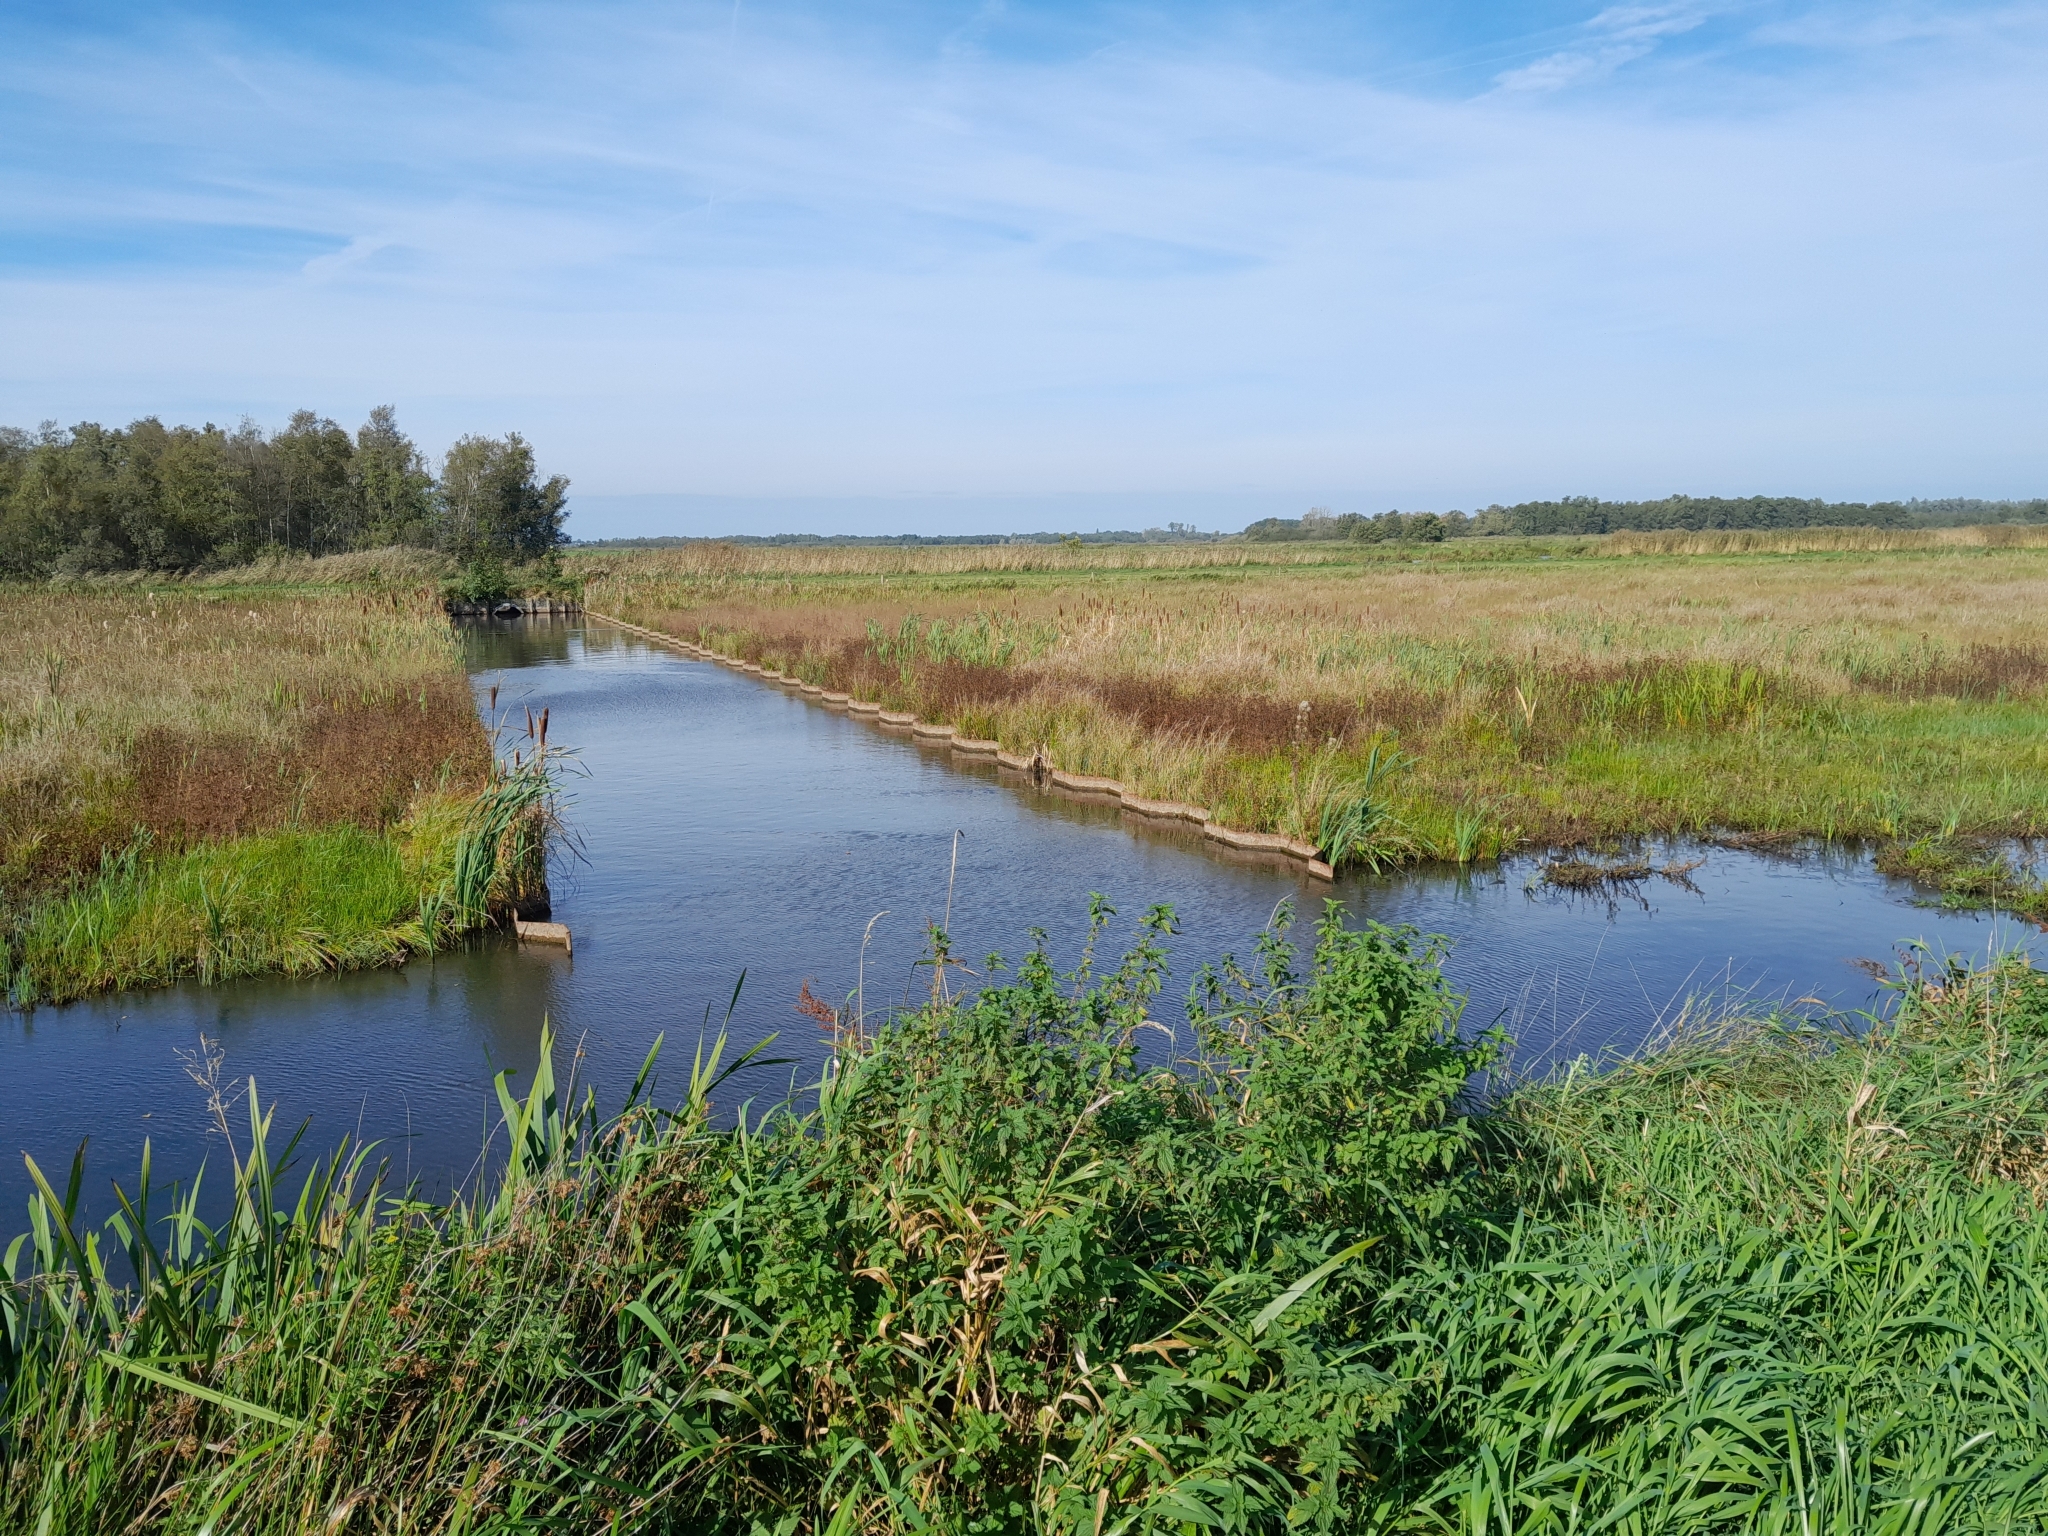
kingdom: Plantae
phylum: Tracheophyta
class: Liliopsida
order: Poales
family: Poaceae
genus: Phragmites
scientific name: Phragmites australis
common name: Common reed
